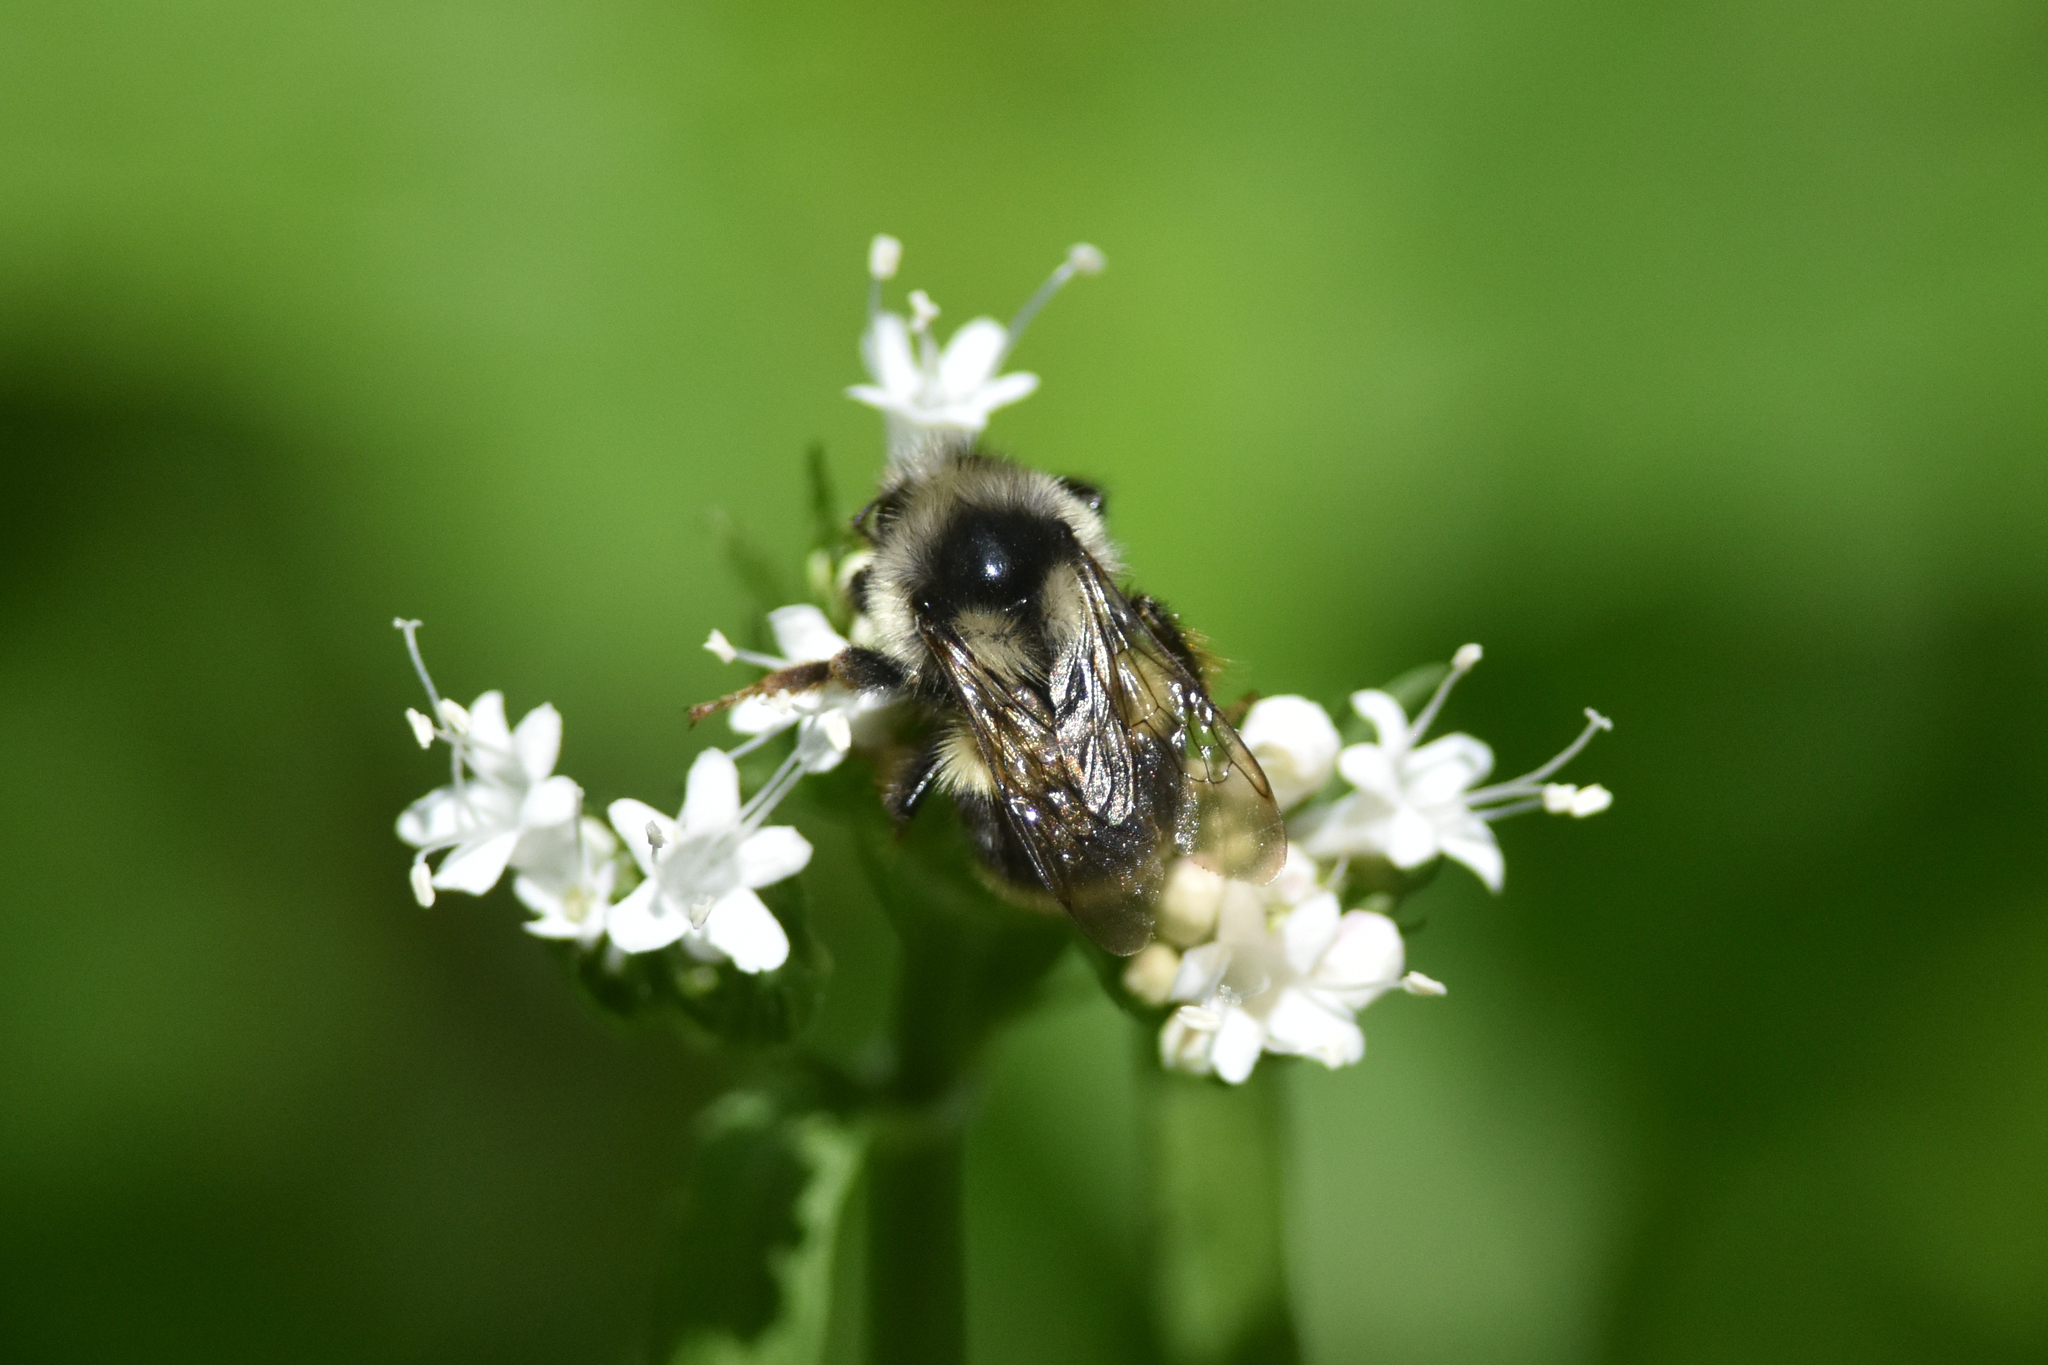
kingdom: Animalia
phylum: Arthropoda
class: Insecta
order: Hymenoptera
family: Apidae
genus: Bombus
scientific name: Bombus vancouverensis
